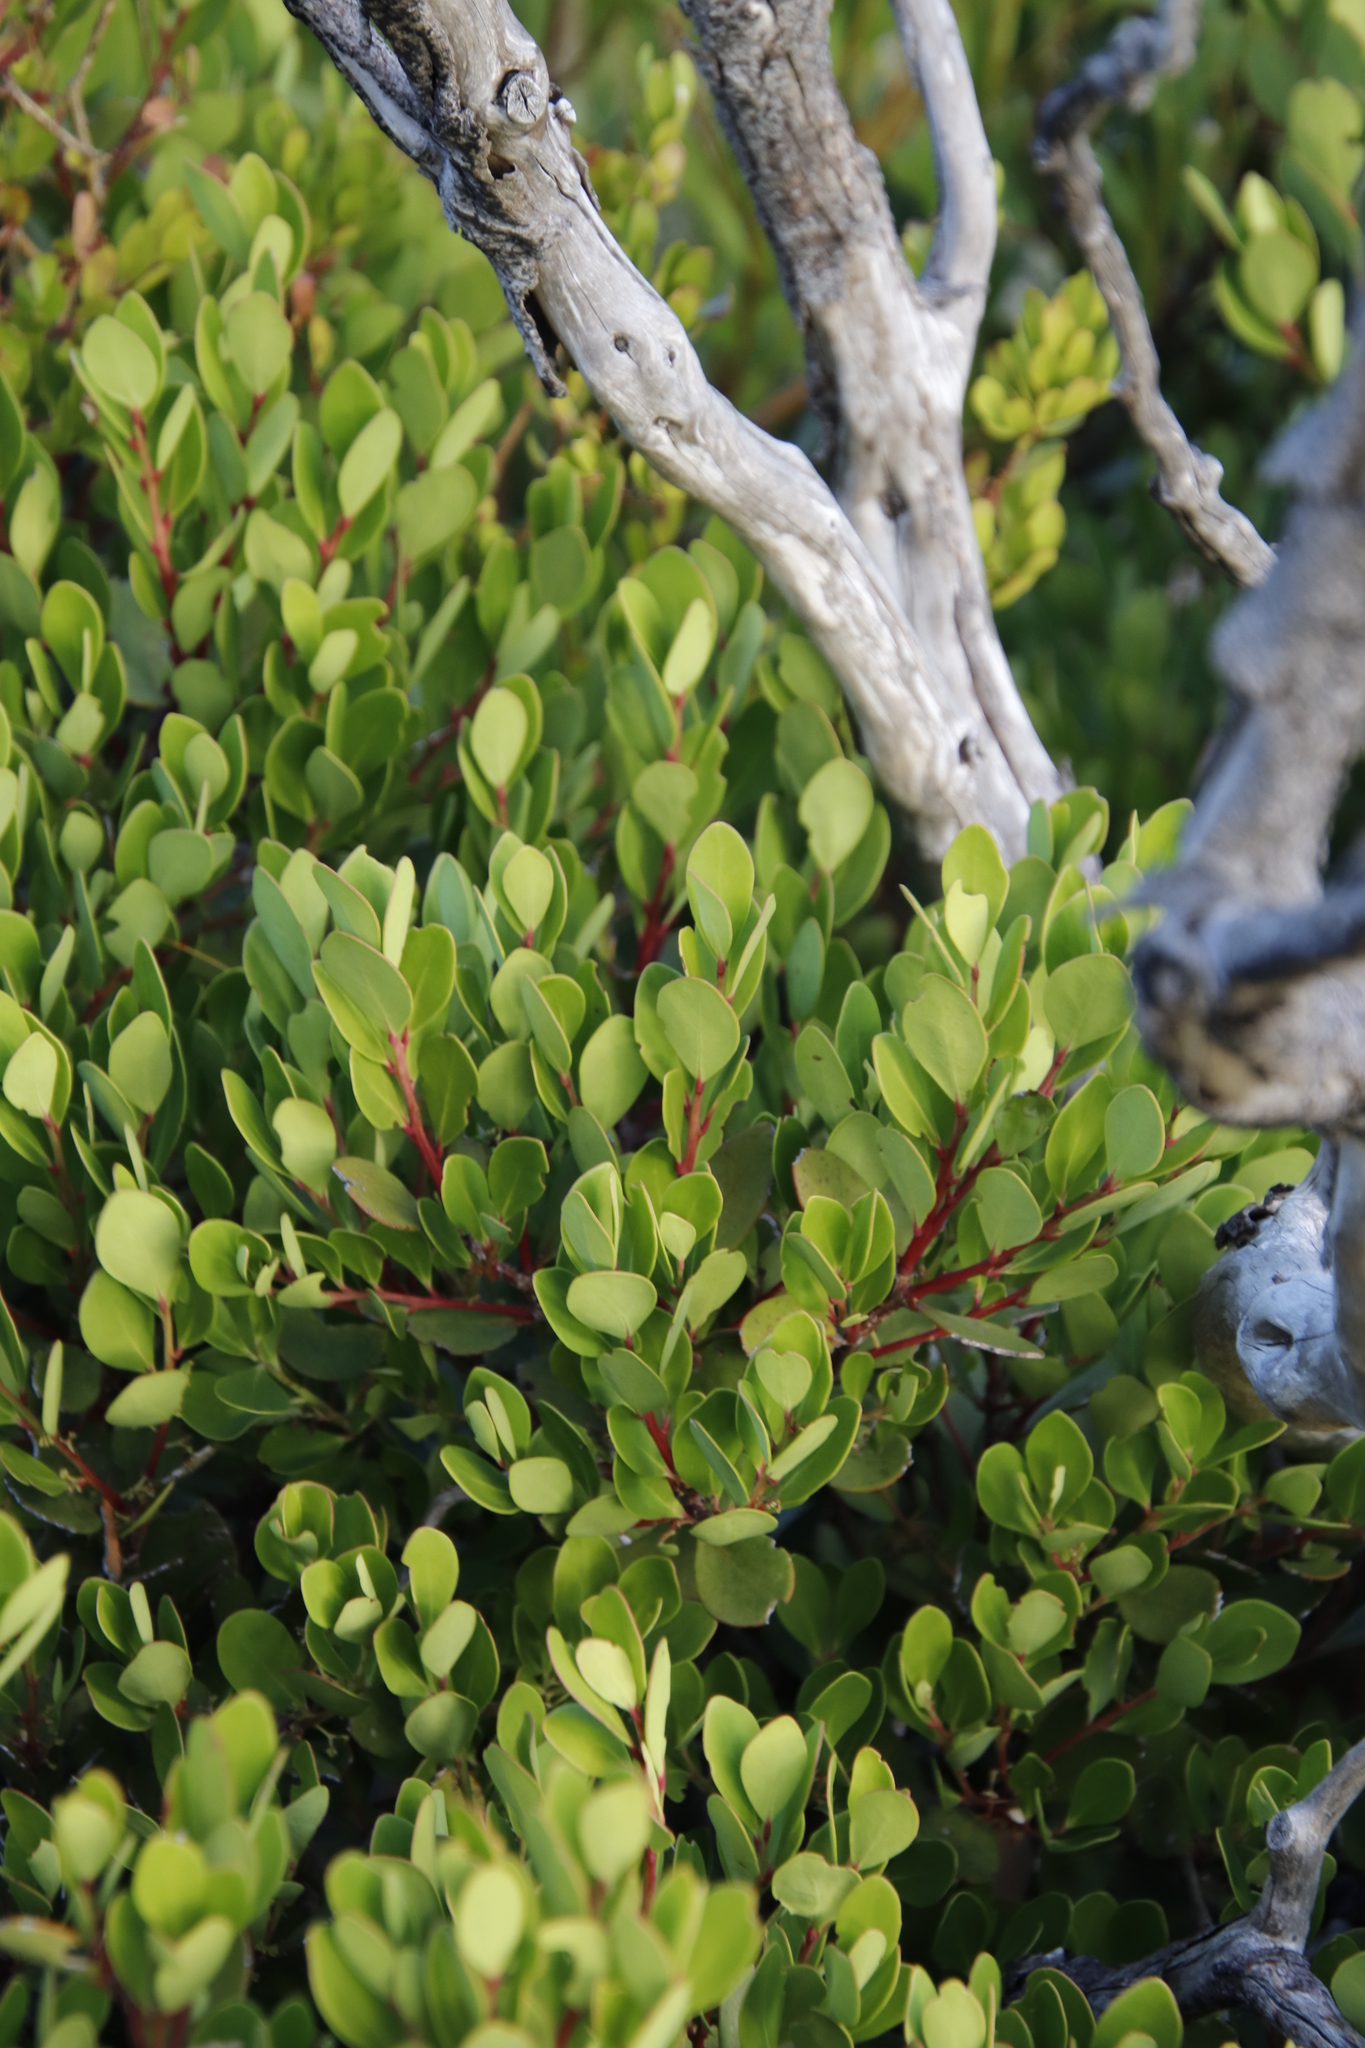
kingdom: Plantae
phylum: Tracheophyta
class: Magnoliopsida
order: Ericales
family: Ebenaceae
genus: Euclea
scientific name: Euclea racemosa
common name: Dune guarri
